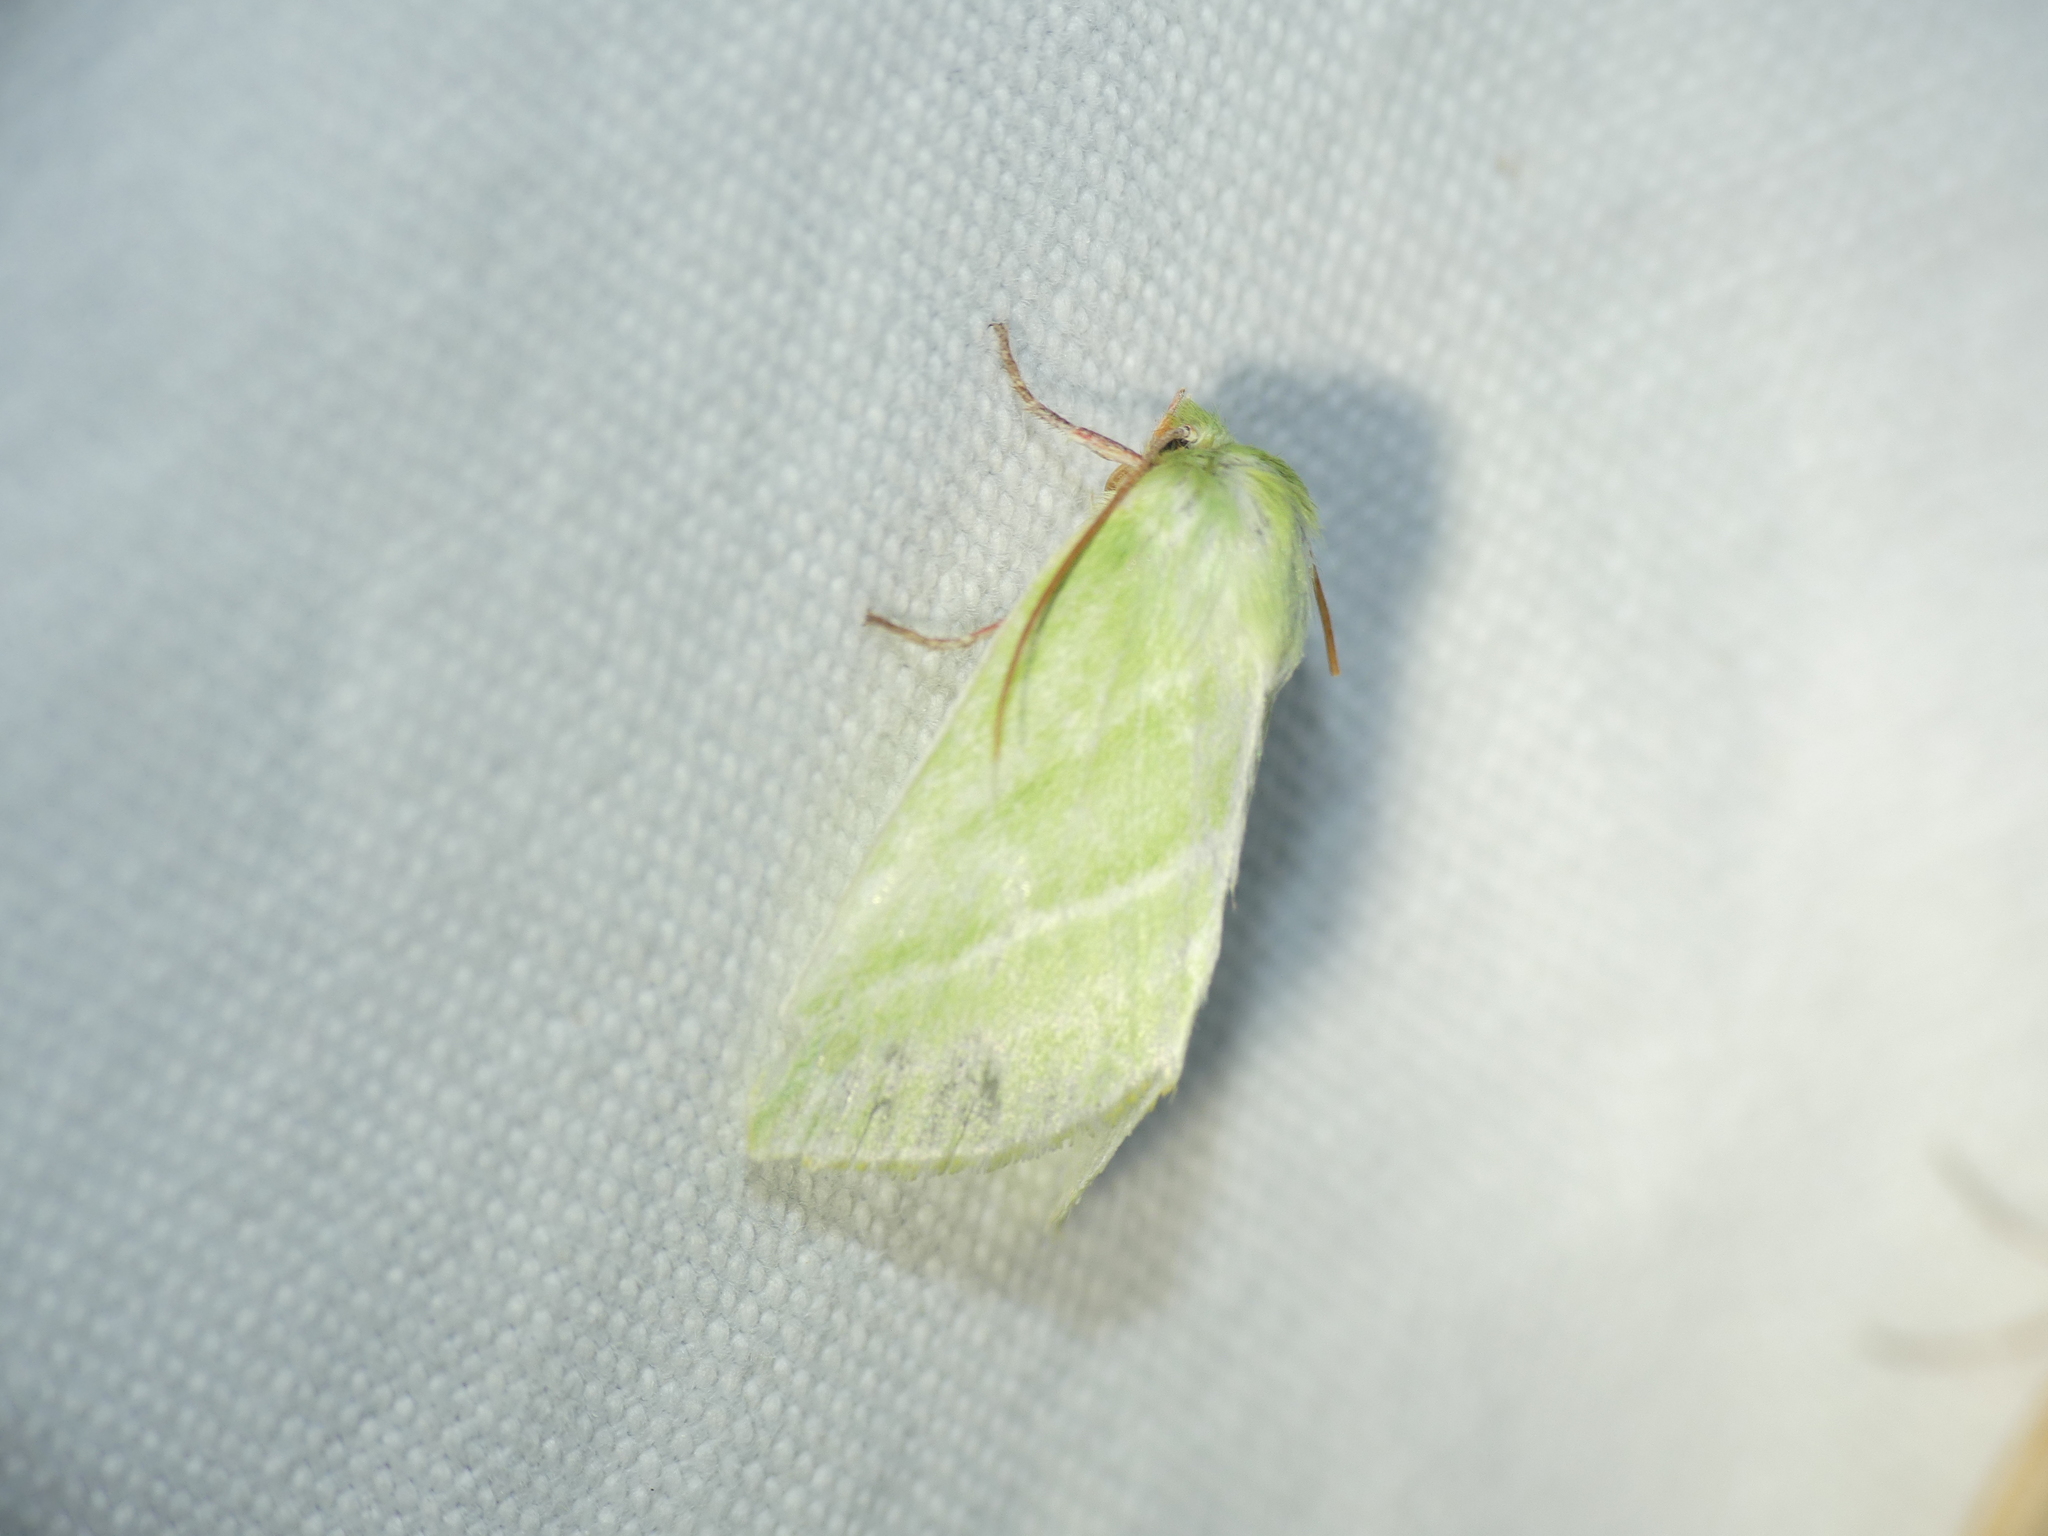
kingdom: Animalia
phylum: Arthropoda
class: Insecta
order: Lepidoptera
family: Nolidae
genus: Pseudoips
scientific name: Pseudoips prasinana
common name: Green silver-lines
